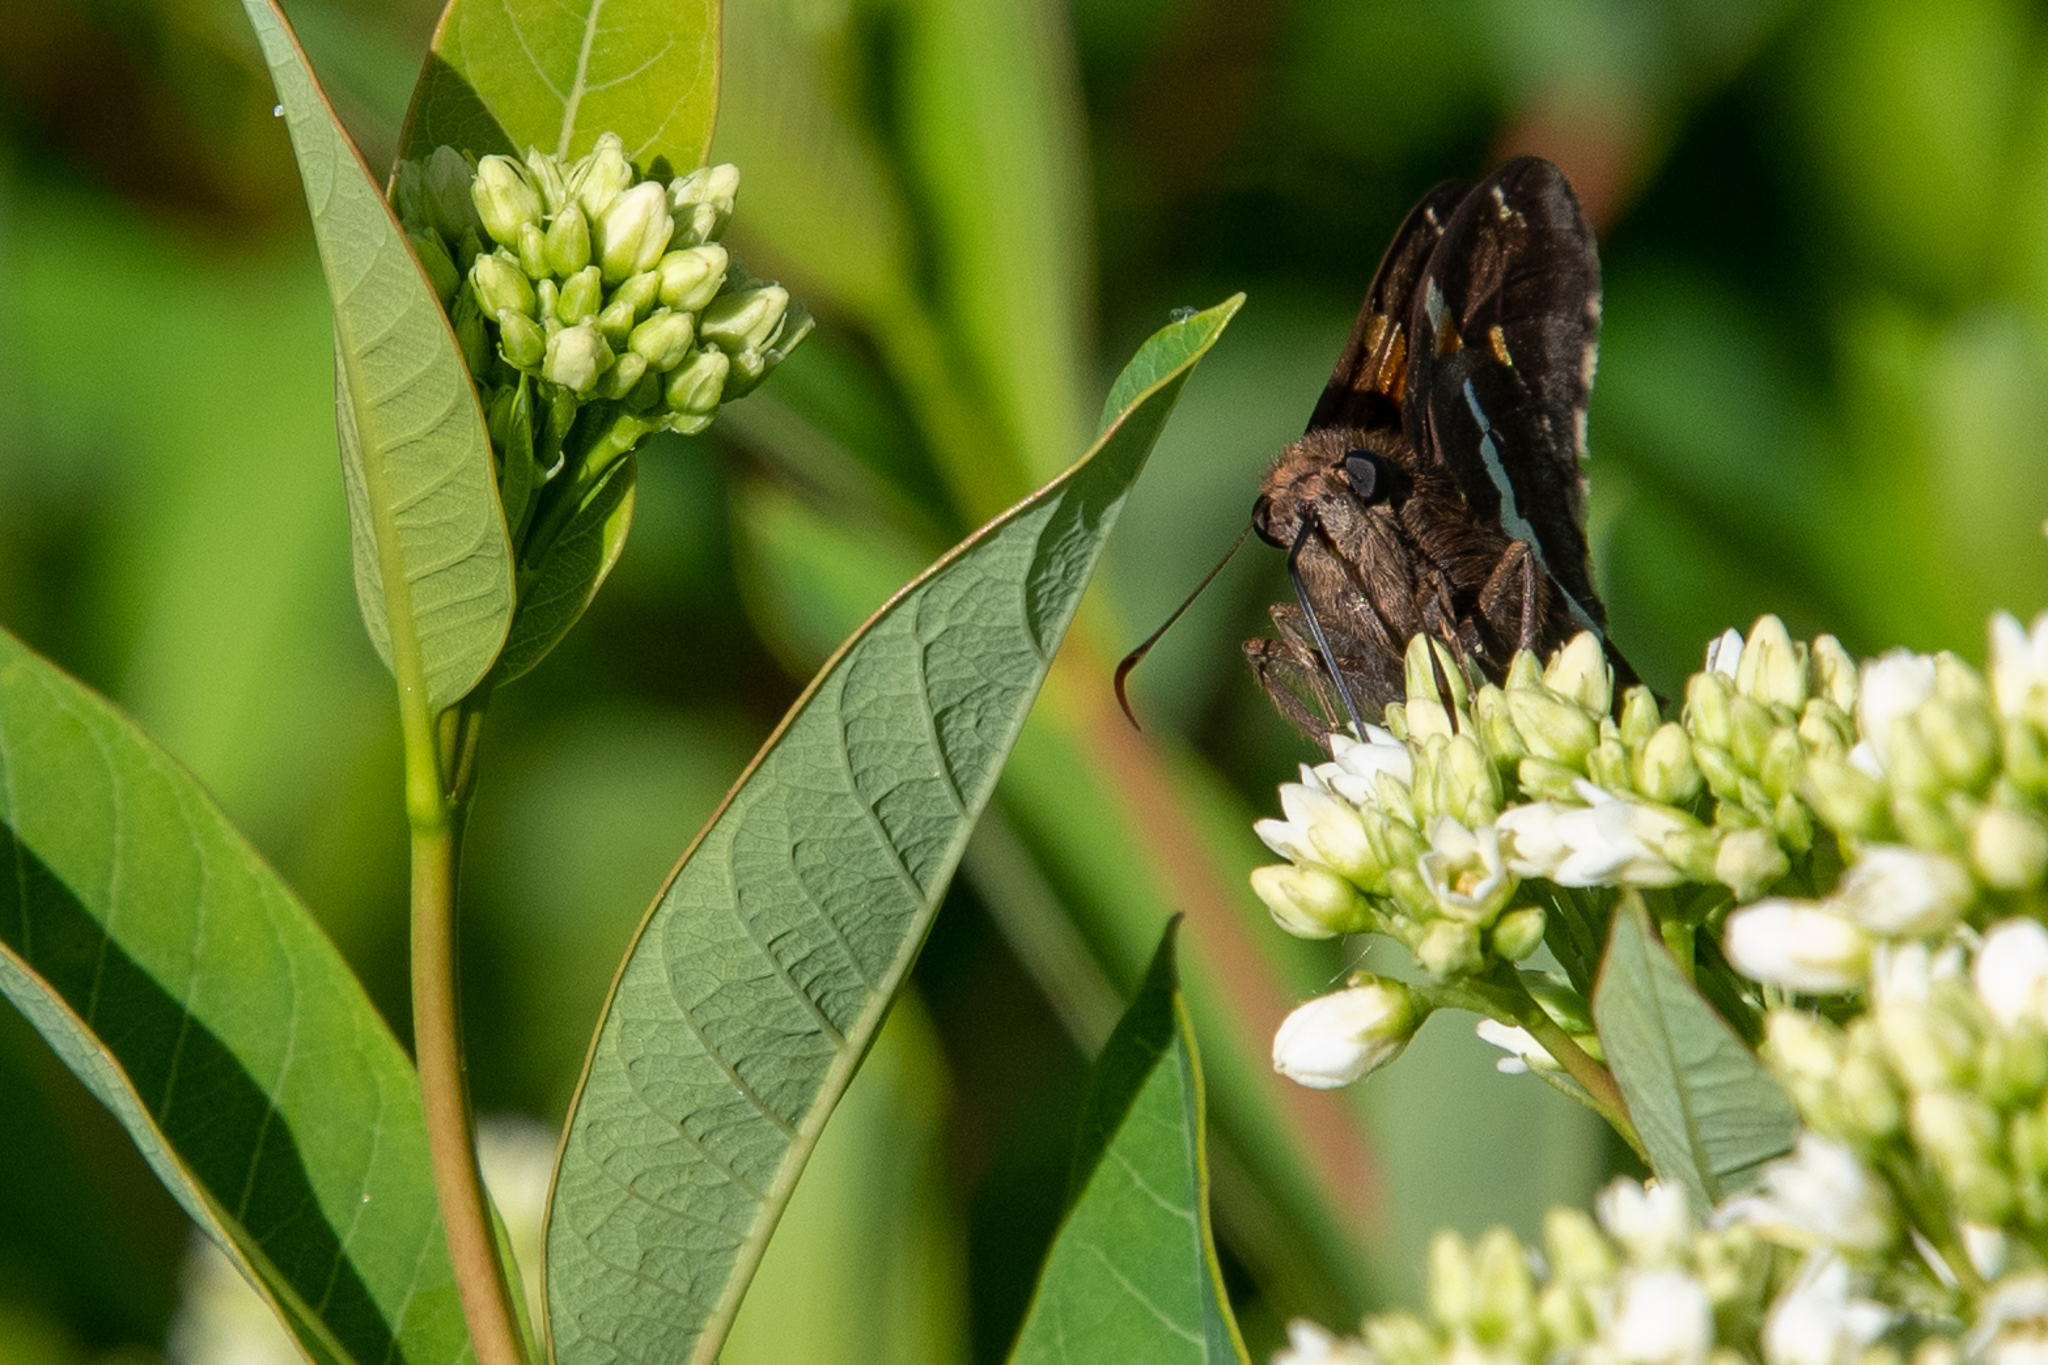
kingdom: Animalia
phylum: Arthropoda
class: Insecta
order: Lepidoptera
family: Hesperiidae
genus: Epargyreus
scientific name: Epargyreus clarus
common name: Silver-spotted skipper
